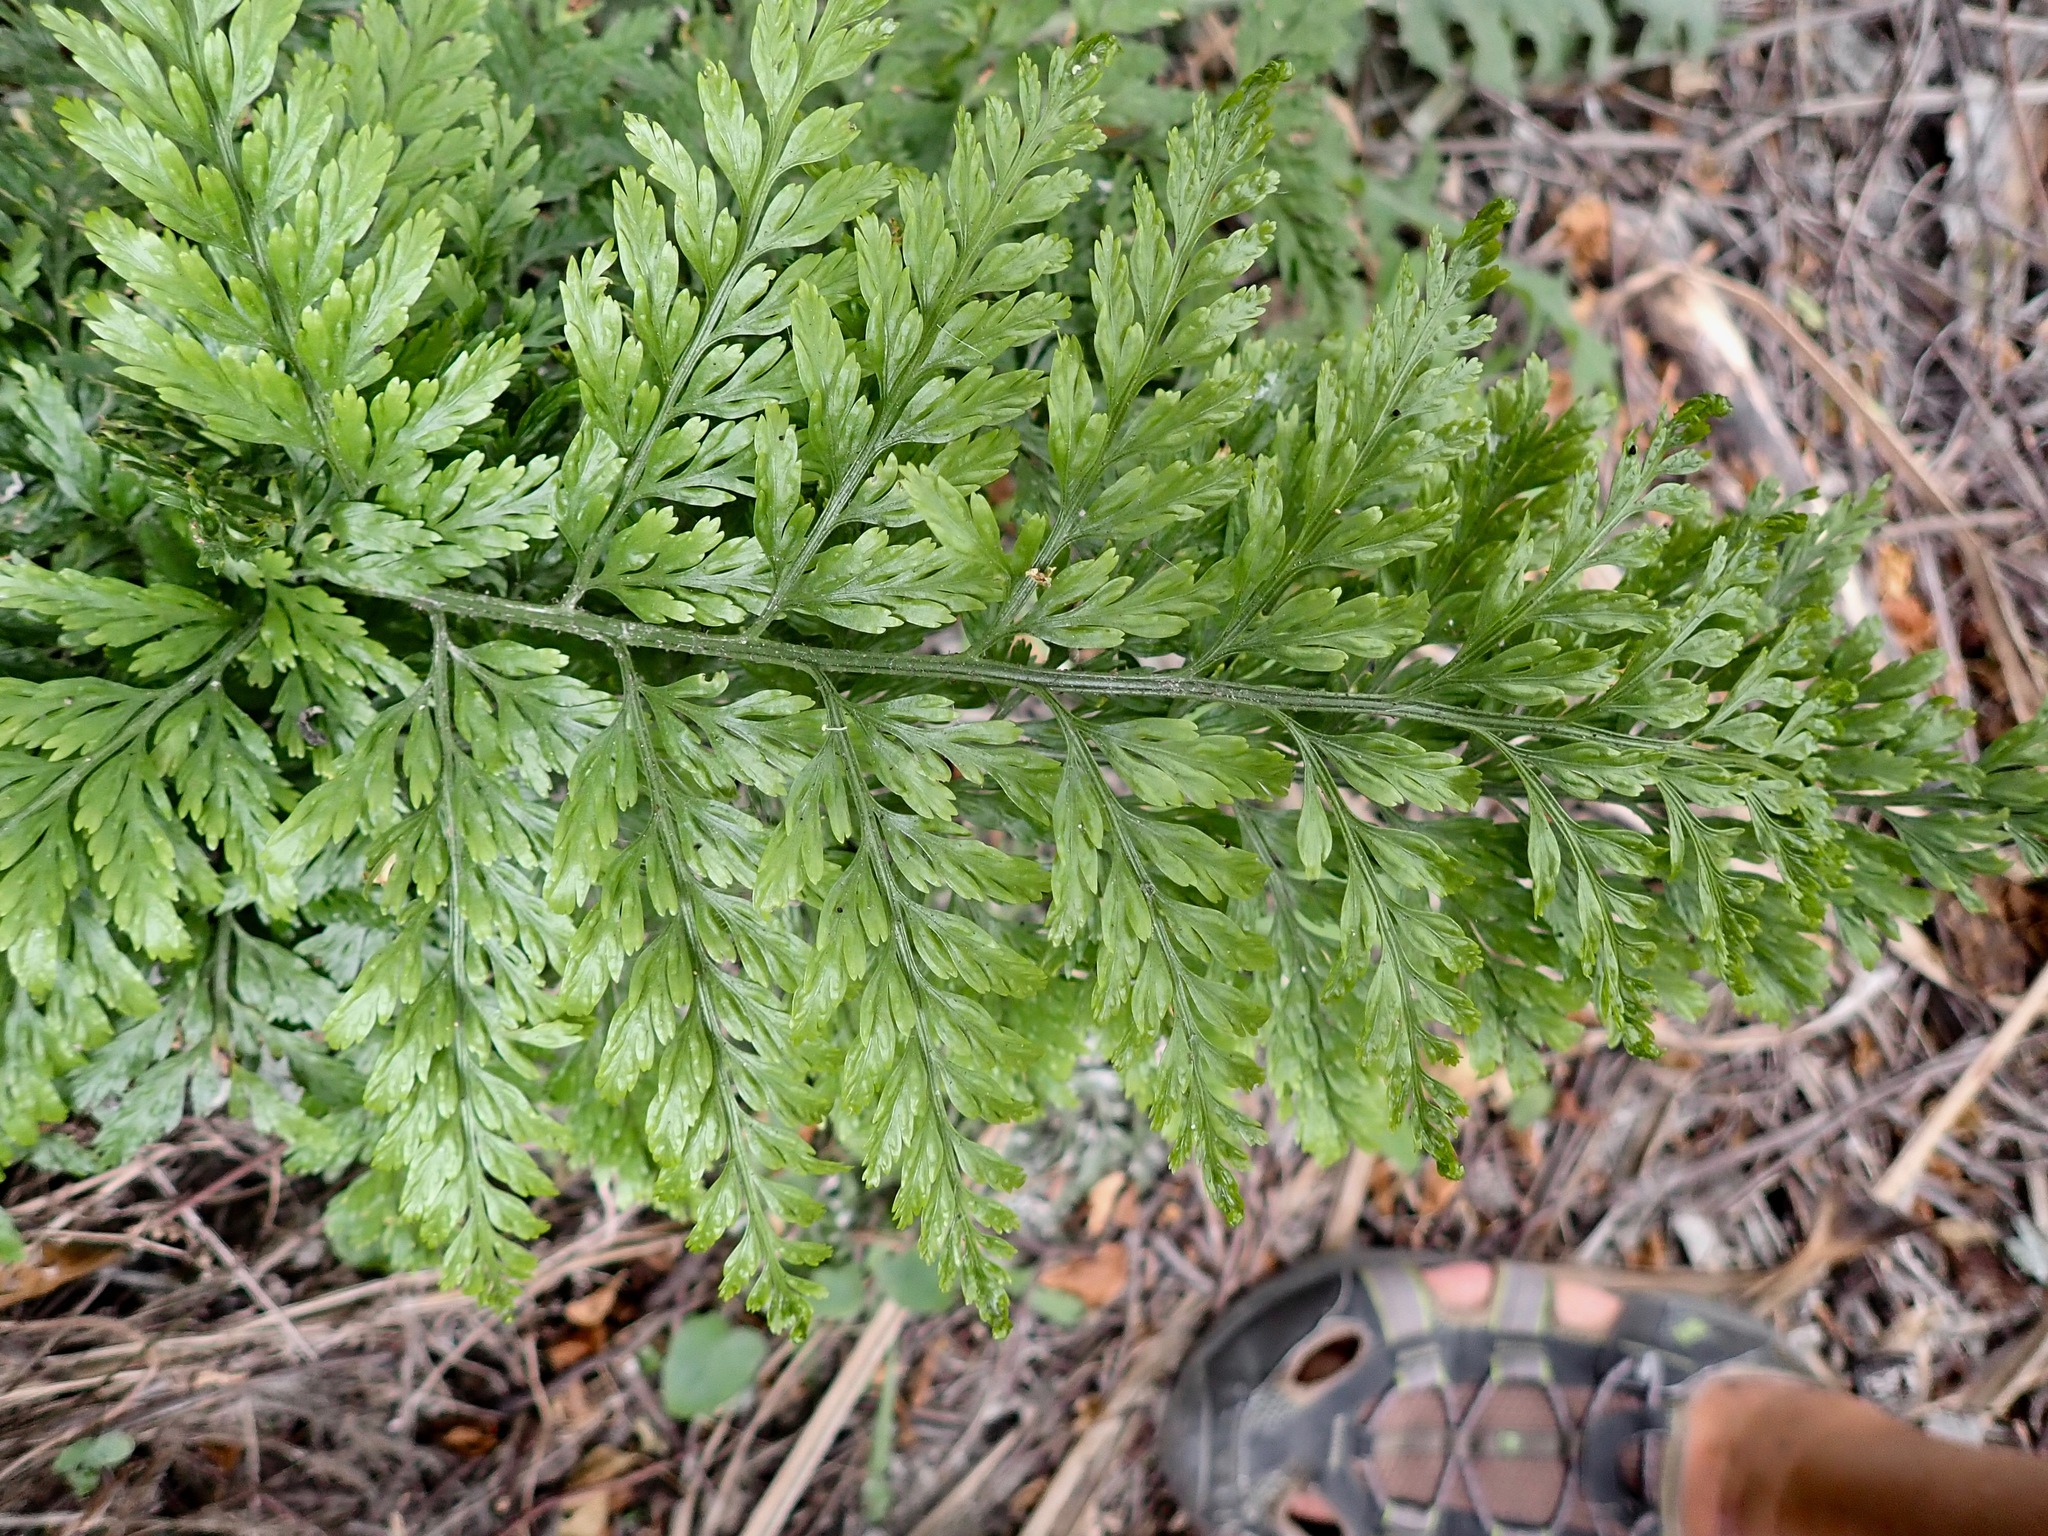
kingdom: Plantae
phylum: Tracheophyta
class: Polypodiopsida
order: Polypodiales
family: Aspleniaceae
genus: Asplenium
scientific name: Asplenium
